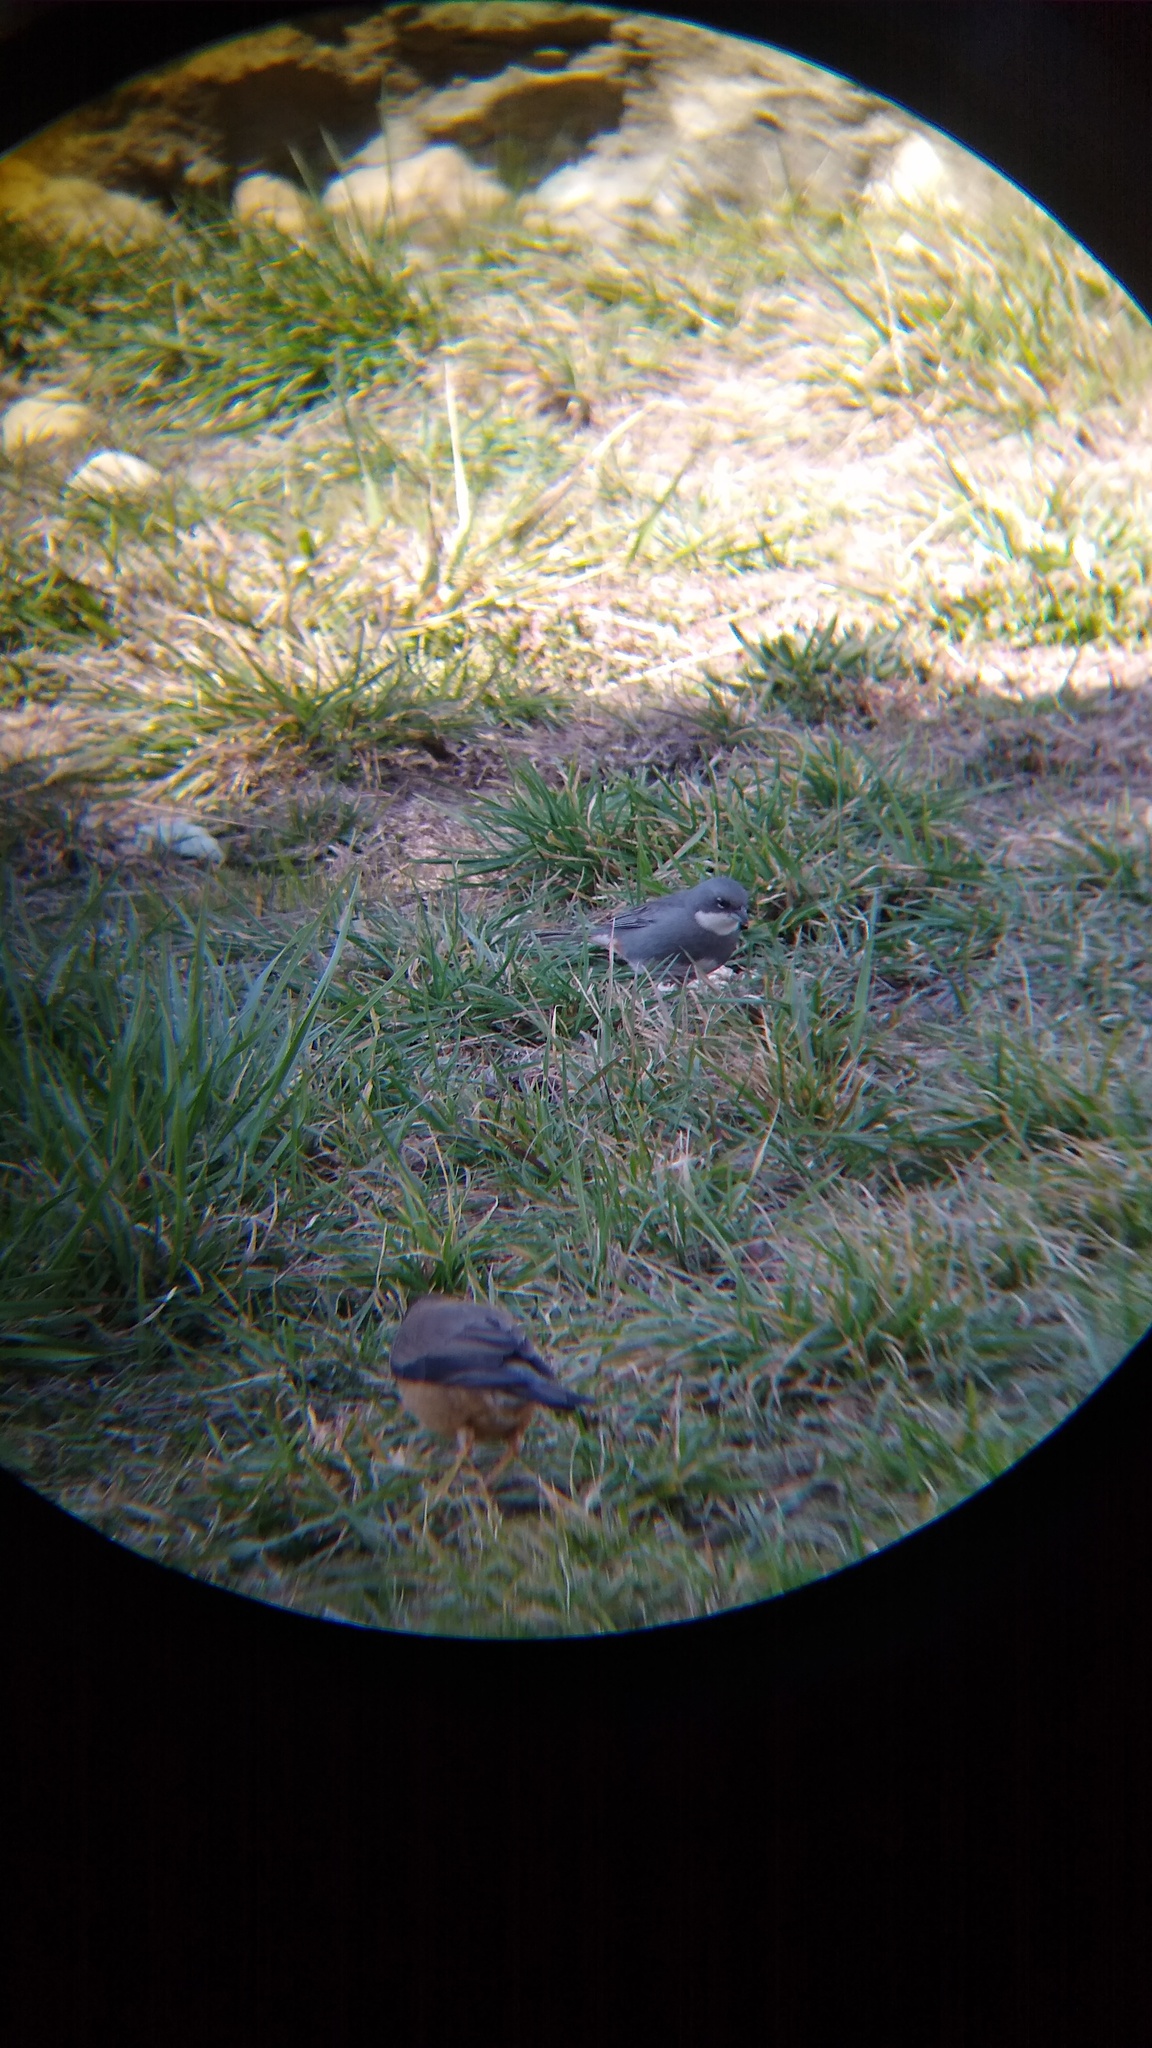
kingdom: Animalia
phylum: Chordata
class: Aves
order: Passeriformes
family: Thraupidae
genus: Diuca
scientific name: Diuca diuca
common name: Common diuca finch
